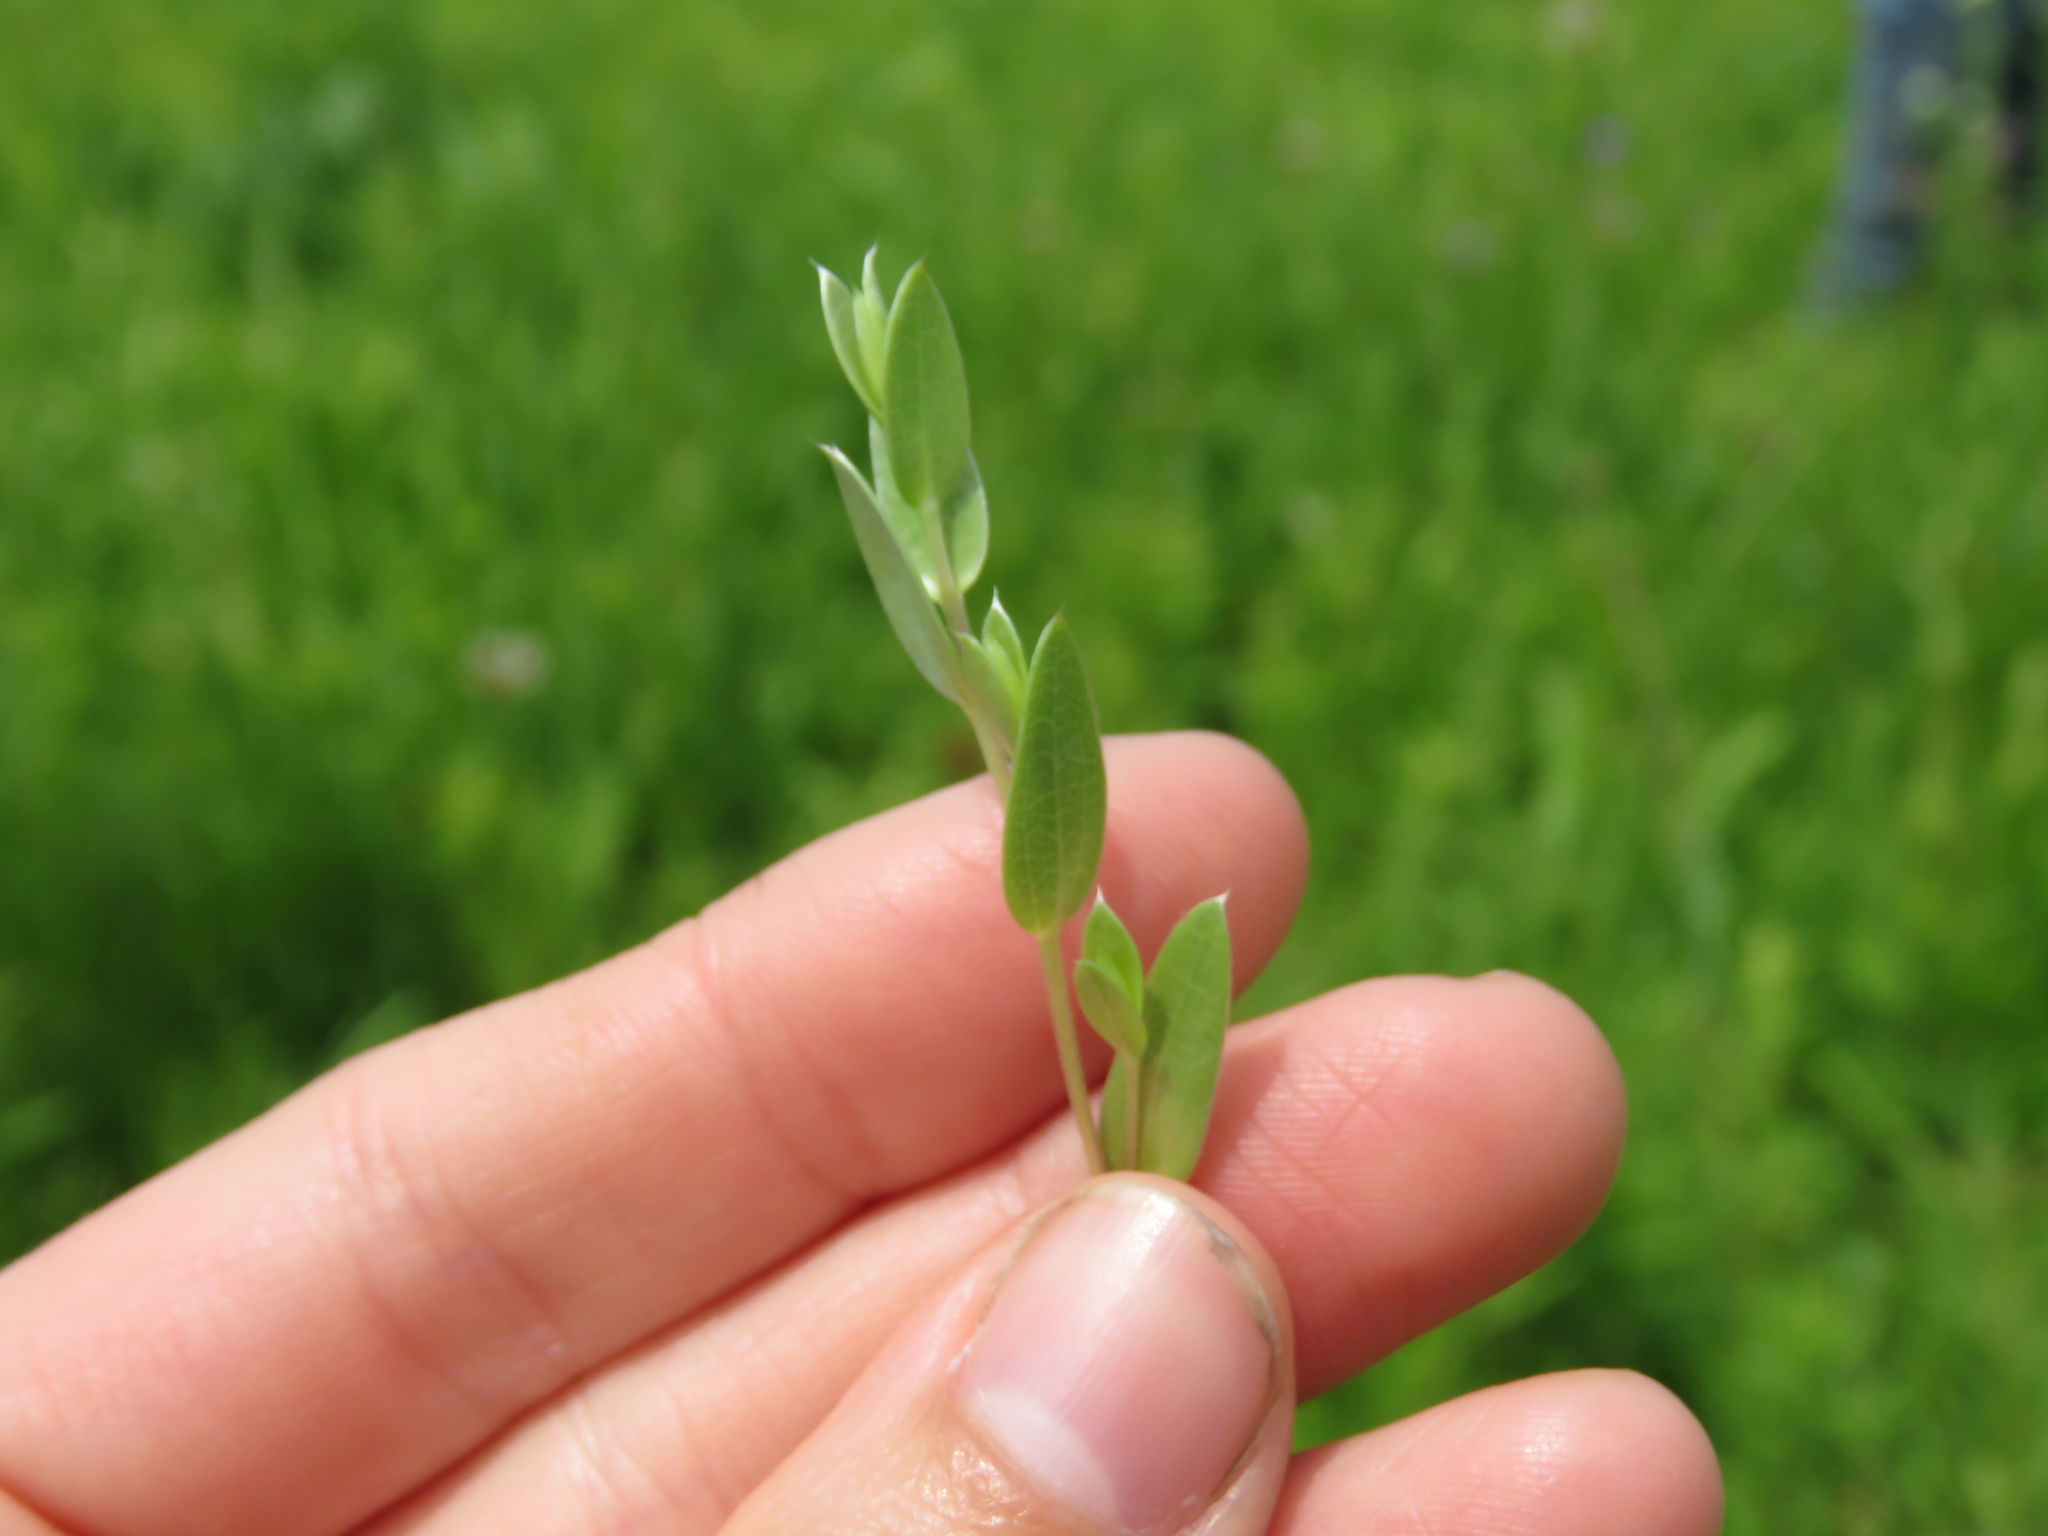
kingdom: Plantae
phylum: Tracheophyta
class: Magnoliopsida
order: Asterales
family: Asteraceae
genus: Symphyotrichum
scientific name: Symphyotrichum sericeum
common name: Silky aster
